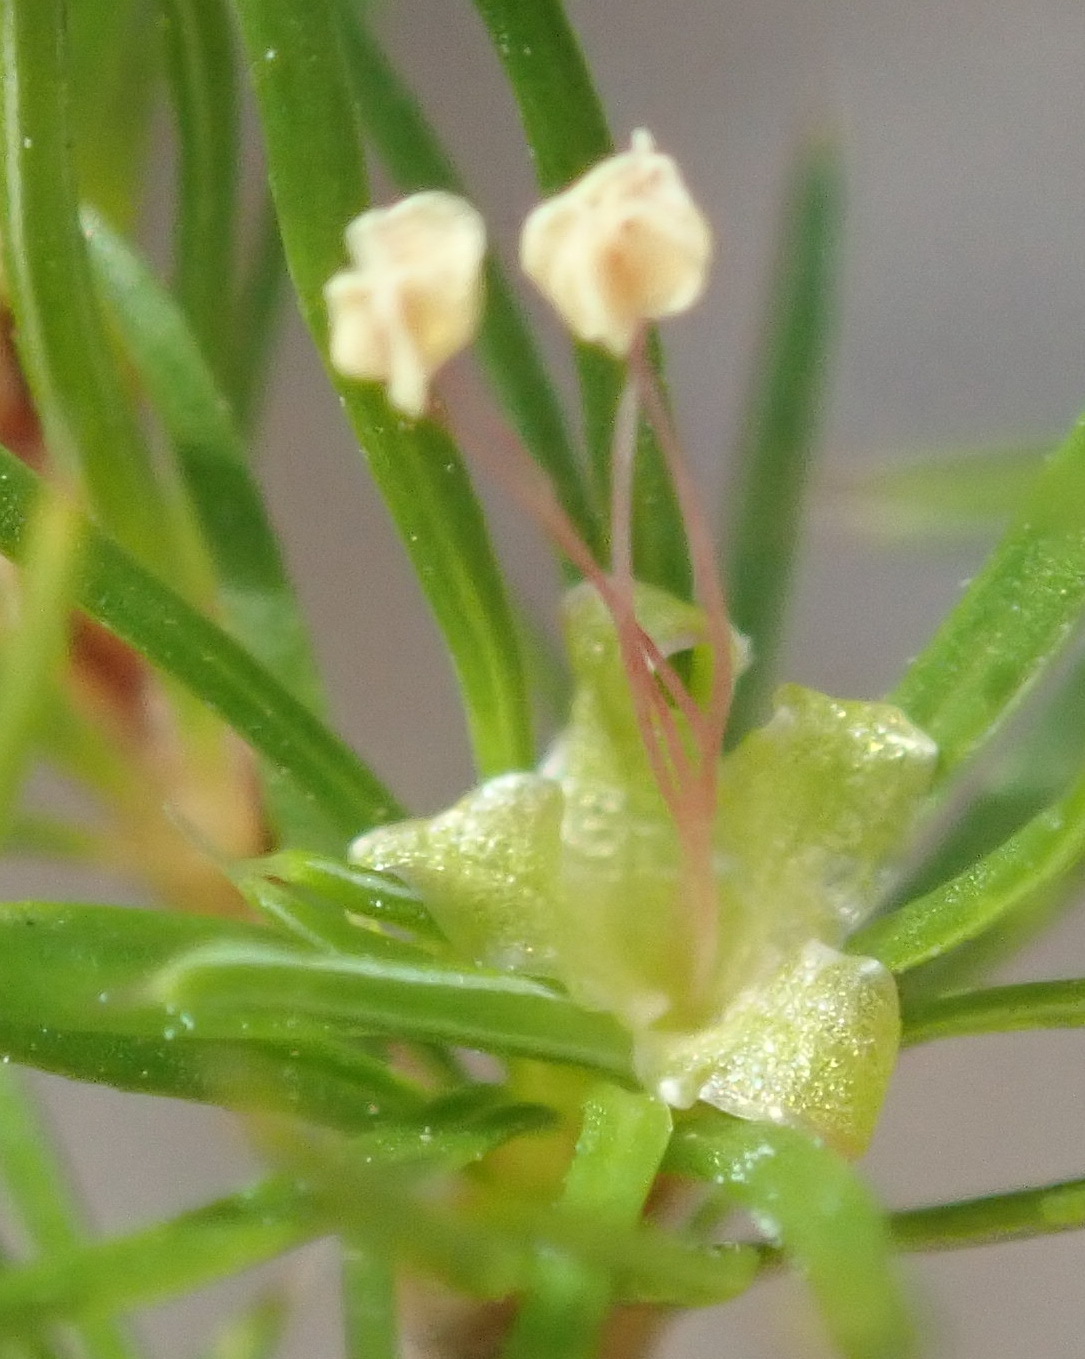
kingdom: Plantae
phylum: Tracheophyta
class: Magnoliopsida
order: Rosales
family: Rosaceae
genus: Cliffortia
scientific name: Cliffortia paucistaminea
